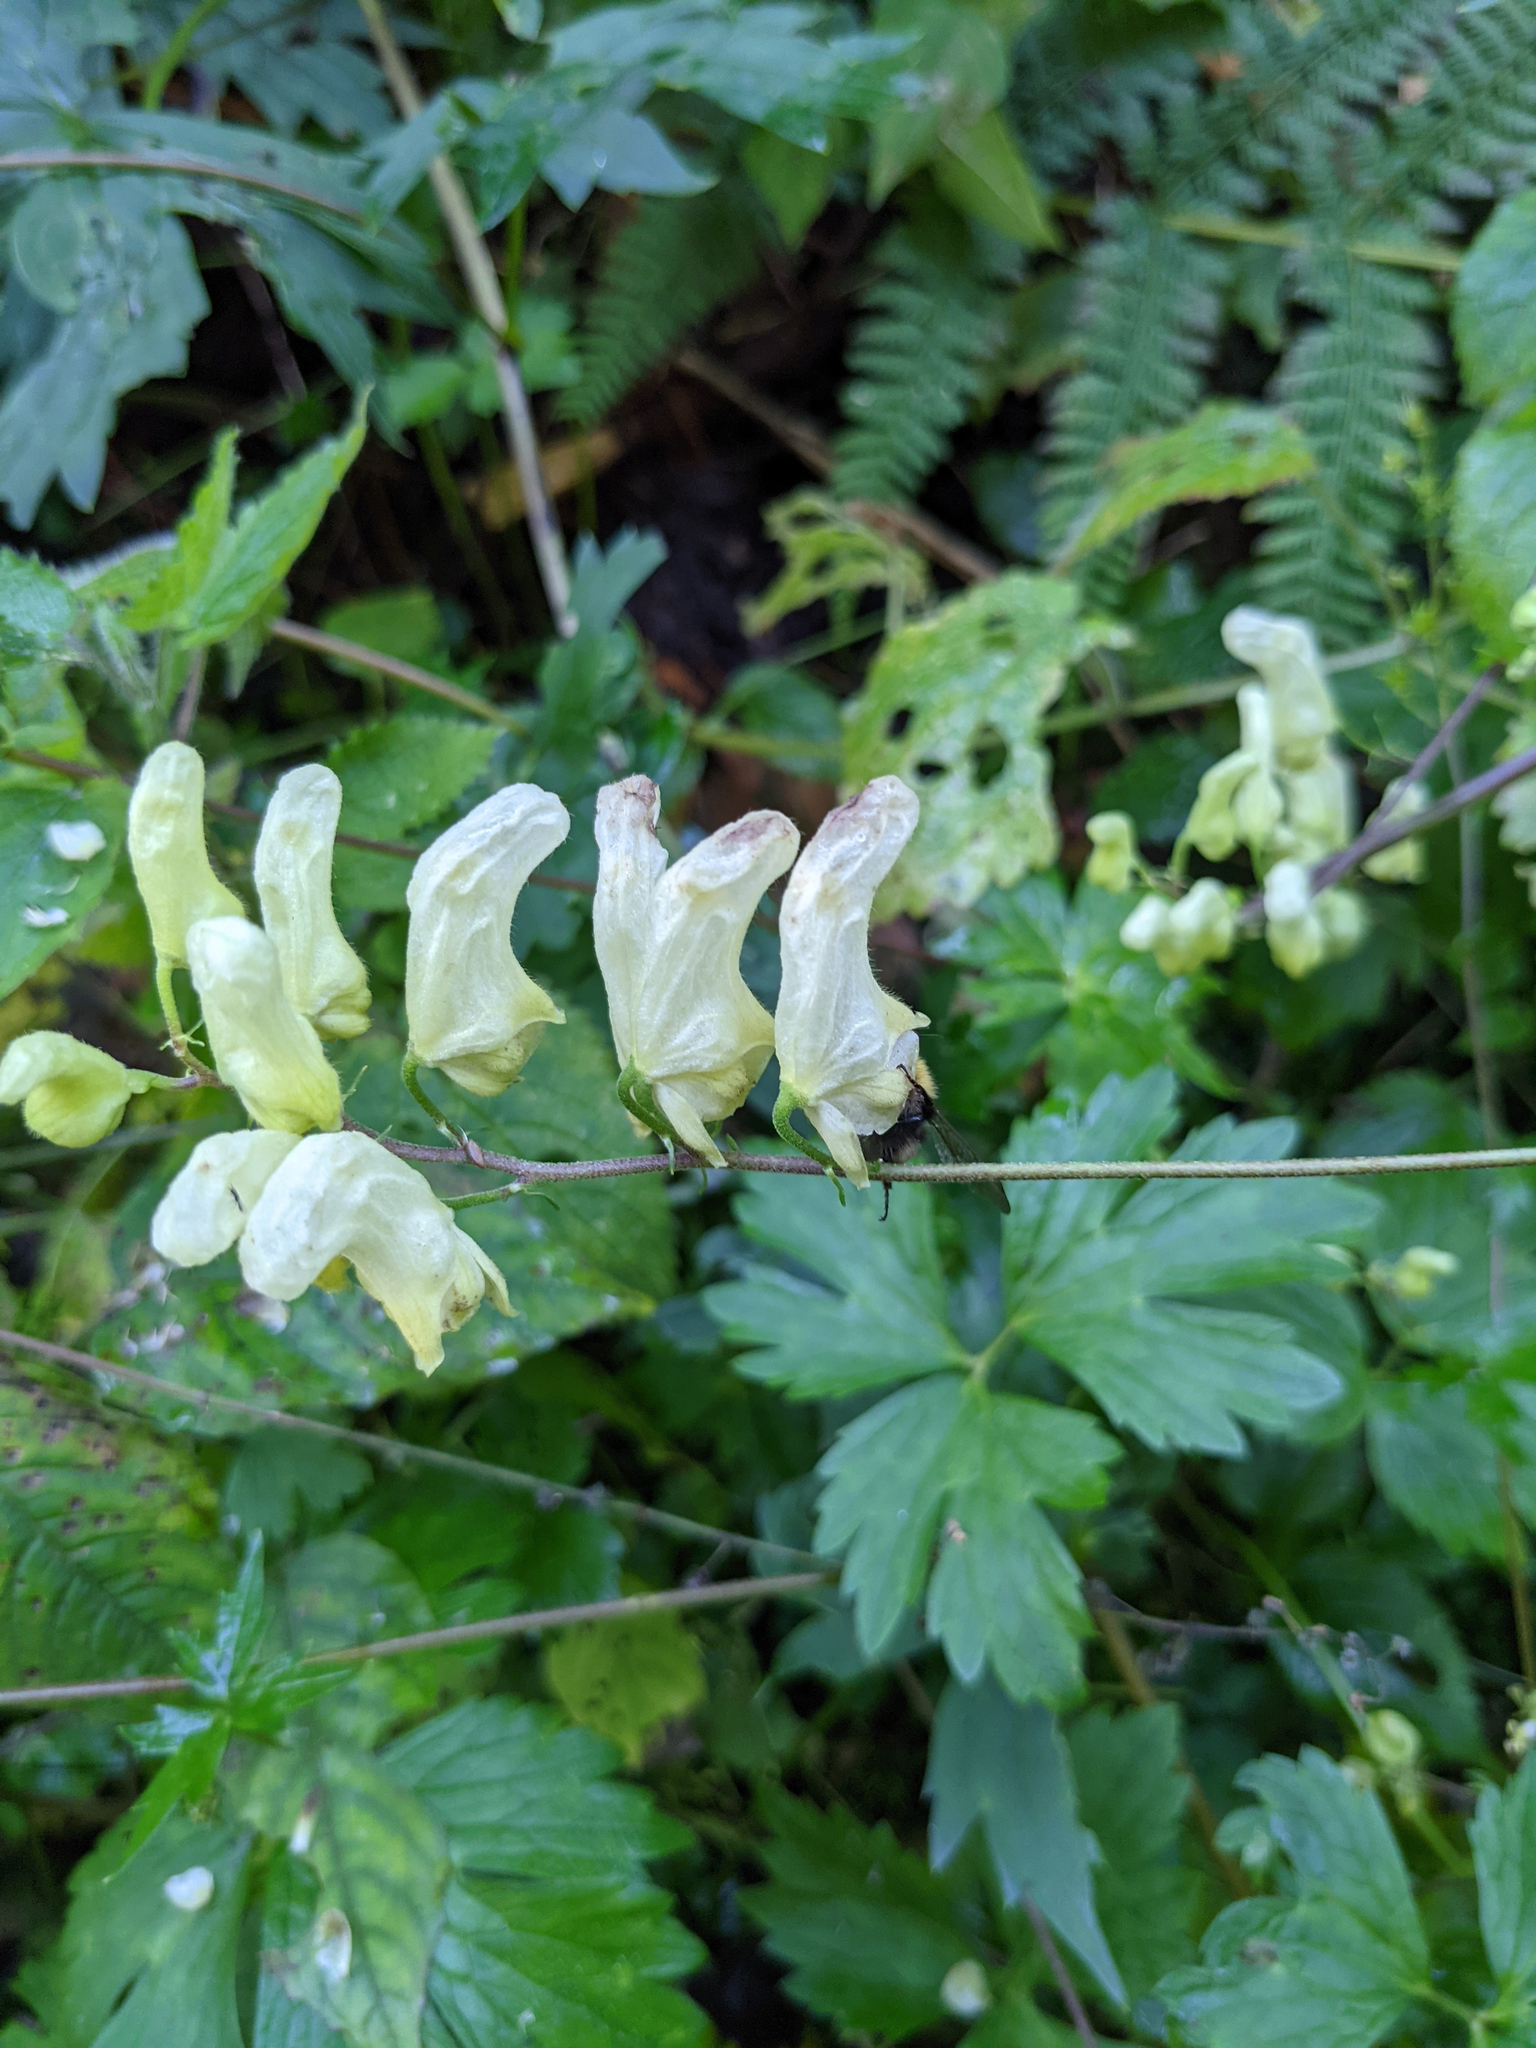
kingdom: Plantae
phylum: Tracheophyta
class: Magnoliopsida
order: Ranunculales
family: Ranunculaceae
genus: Aconitum
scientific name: Aconitum lycoctonum
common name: Wolf's-bane
